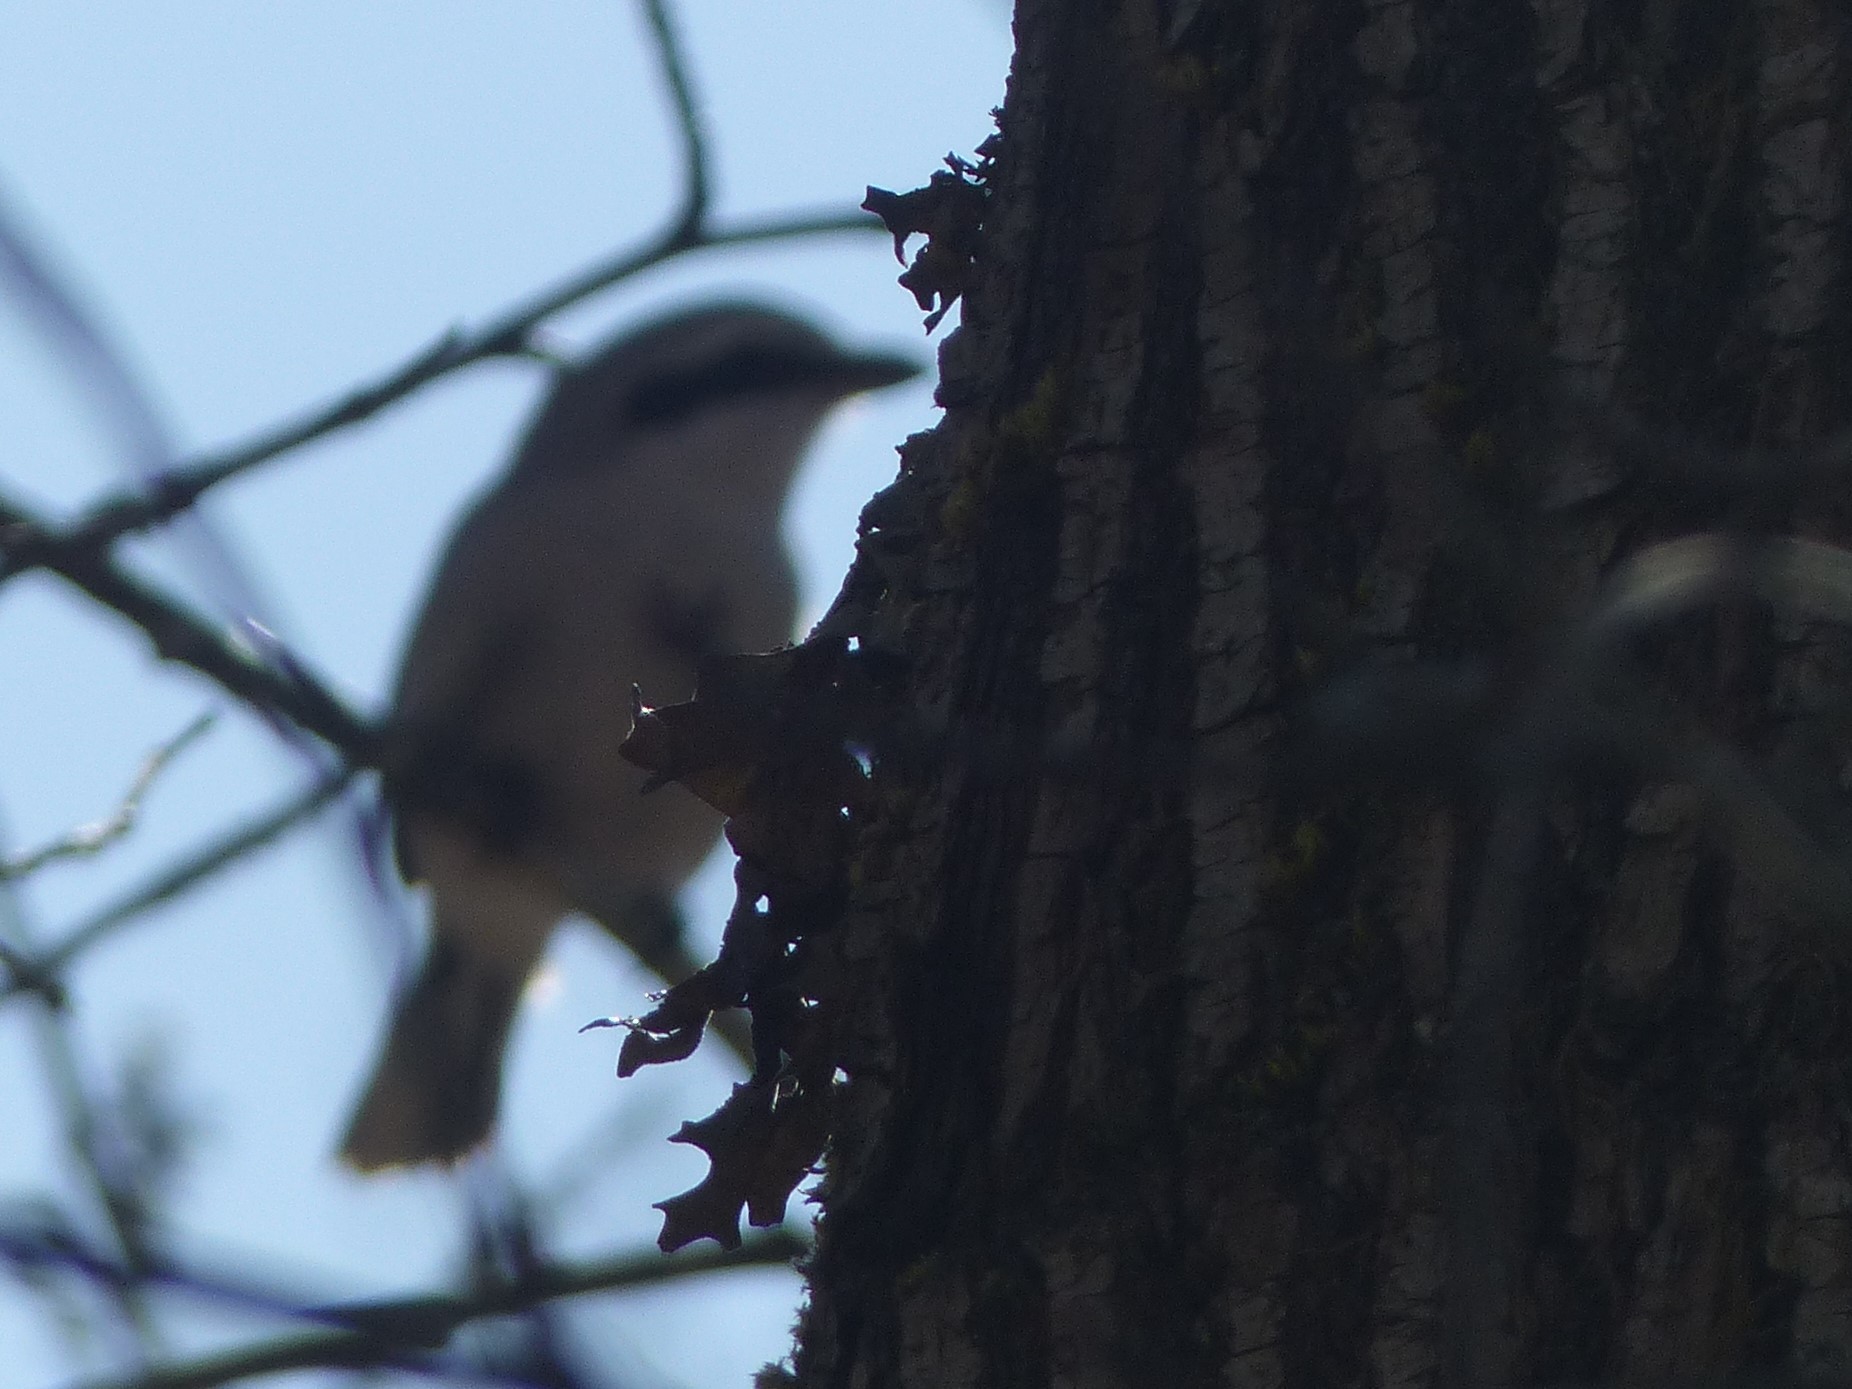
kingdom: Animalia
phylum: Chordata
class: Aves
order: Passeriformes
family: Laniidae
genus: Lanius
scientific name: Lanius borealis
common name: Northern shrike
